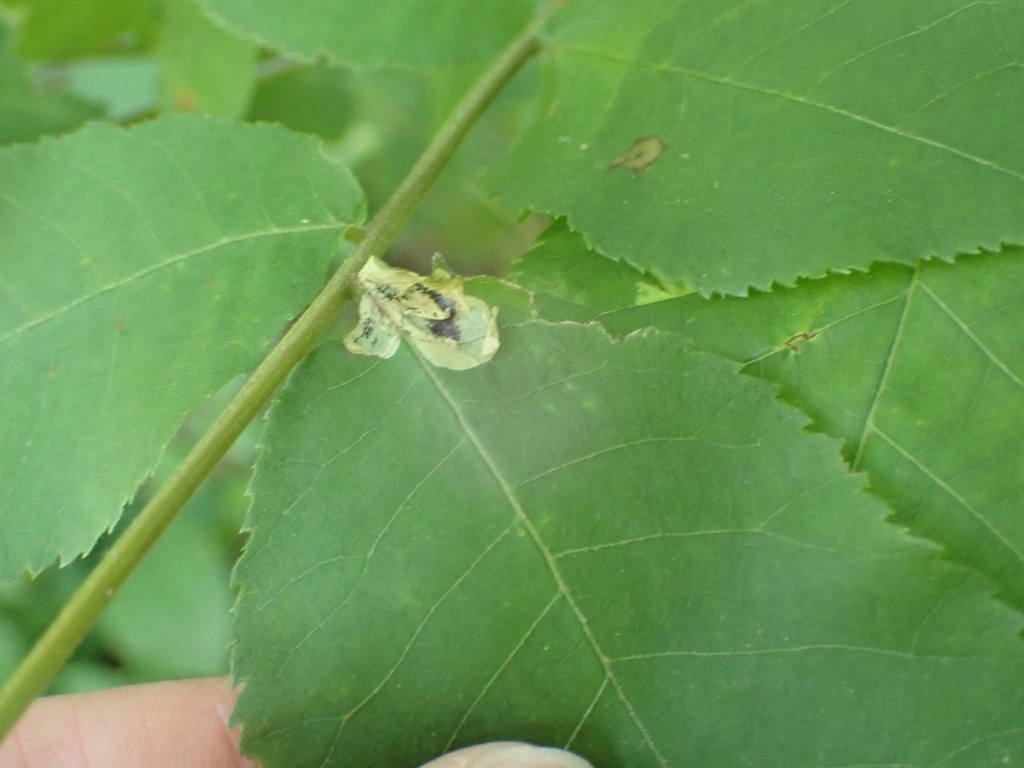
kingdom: Animalia
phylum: Arthropoda
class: Insecta
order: Lepidoptera
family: Gracillariidae
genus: Cameraria
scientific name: Cameraria caryaefoliella
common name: Pecan leafminer moth
